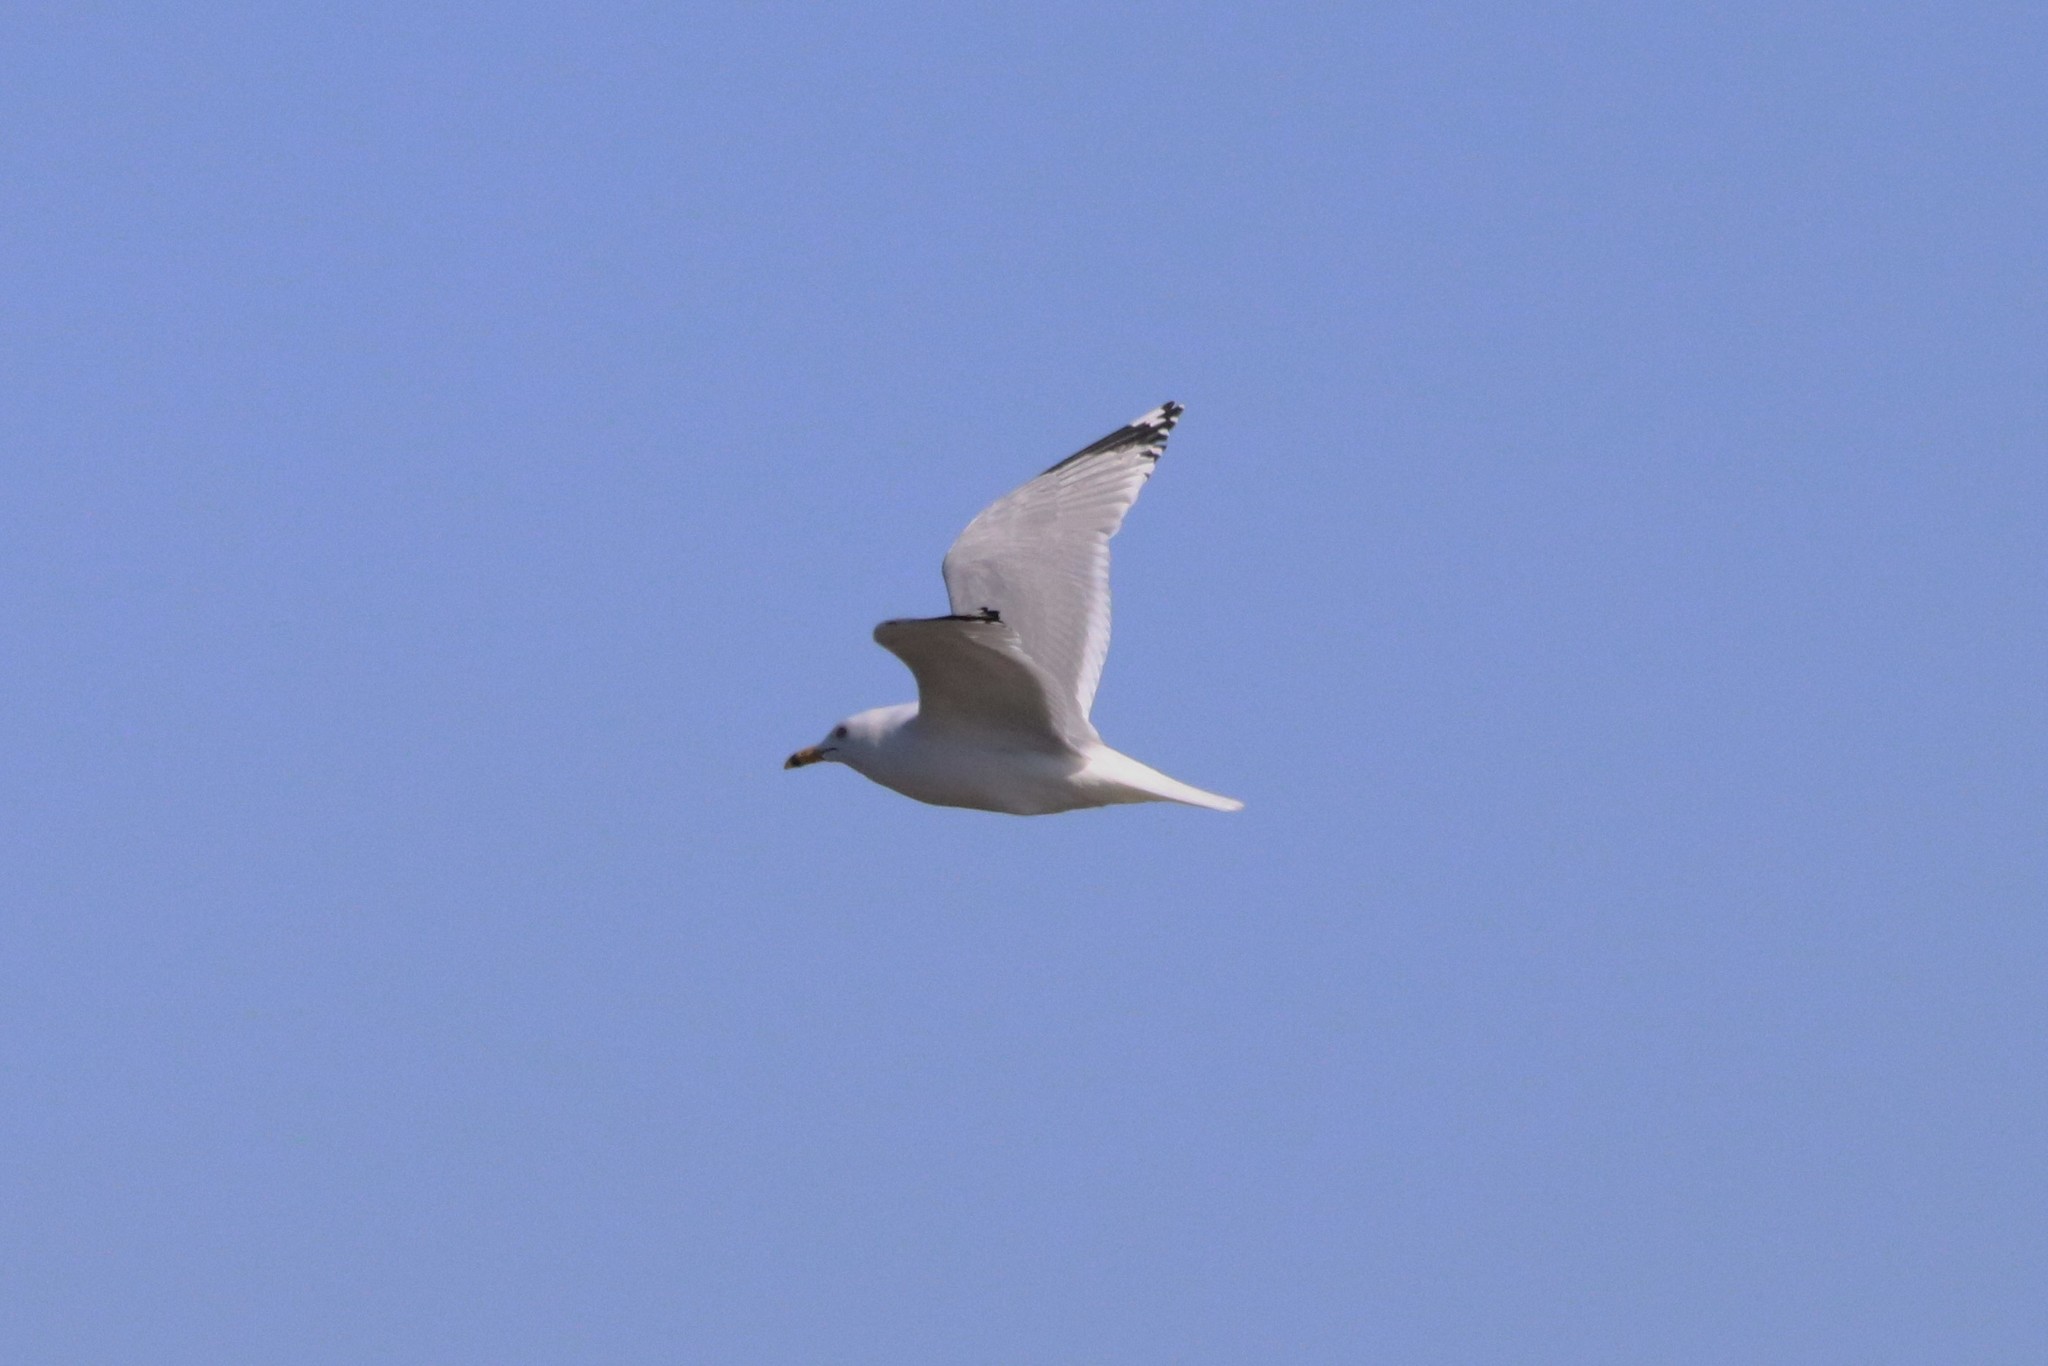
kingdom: Animalia
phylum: Chordata
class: Aves
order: Charadriiformes
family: Laridae
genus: Larus
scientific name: Larus delawarensis
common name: Ring-billed gull
